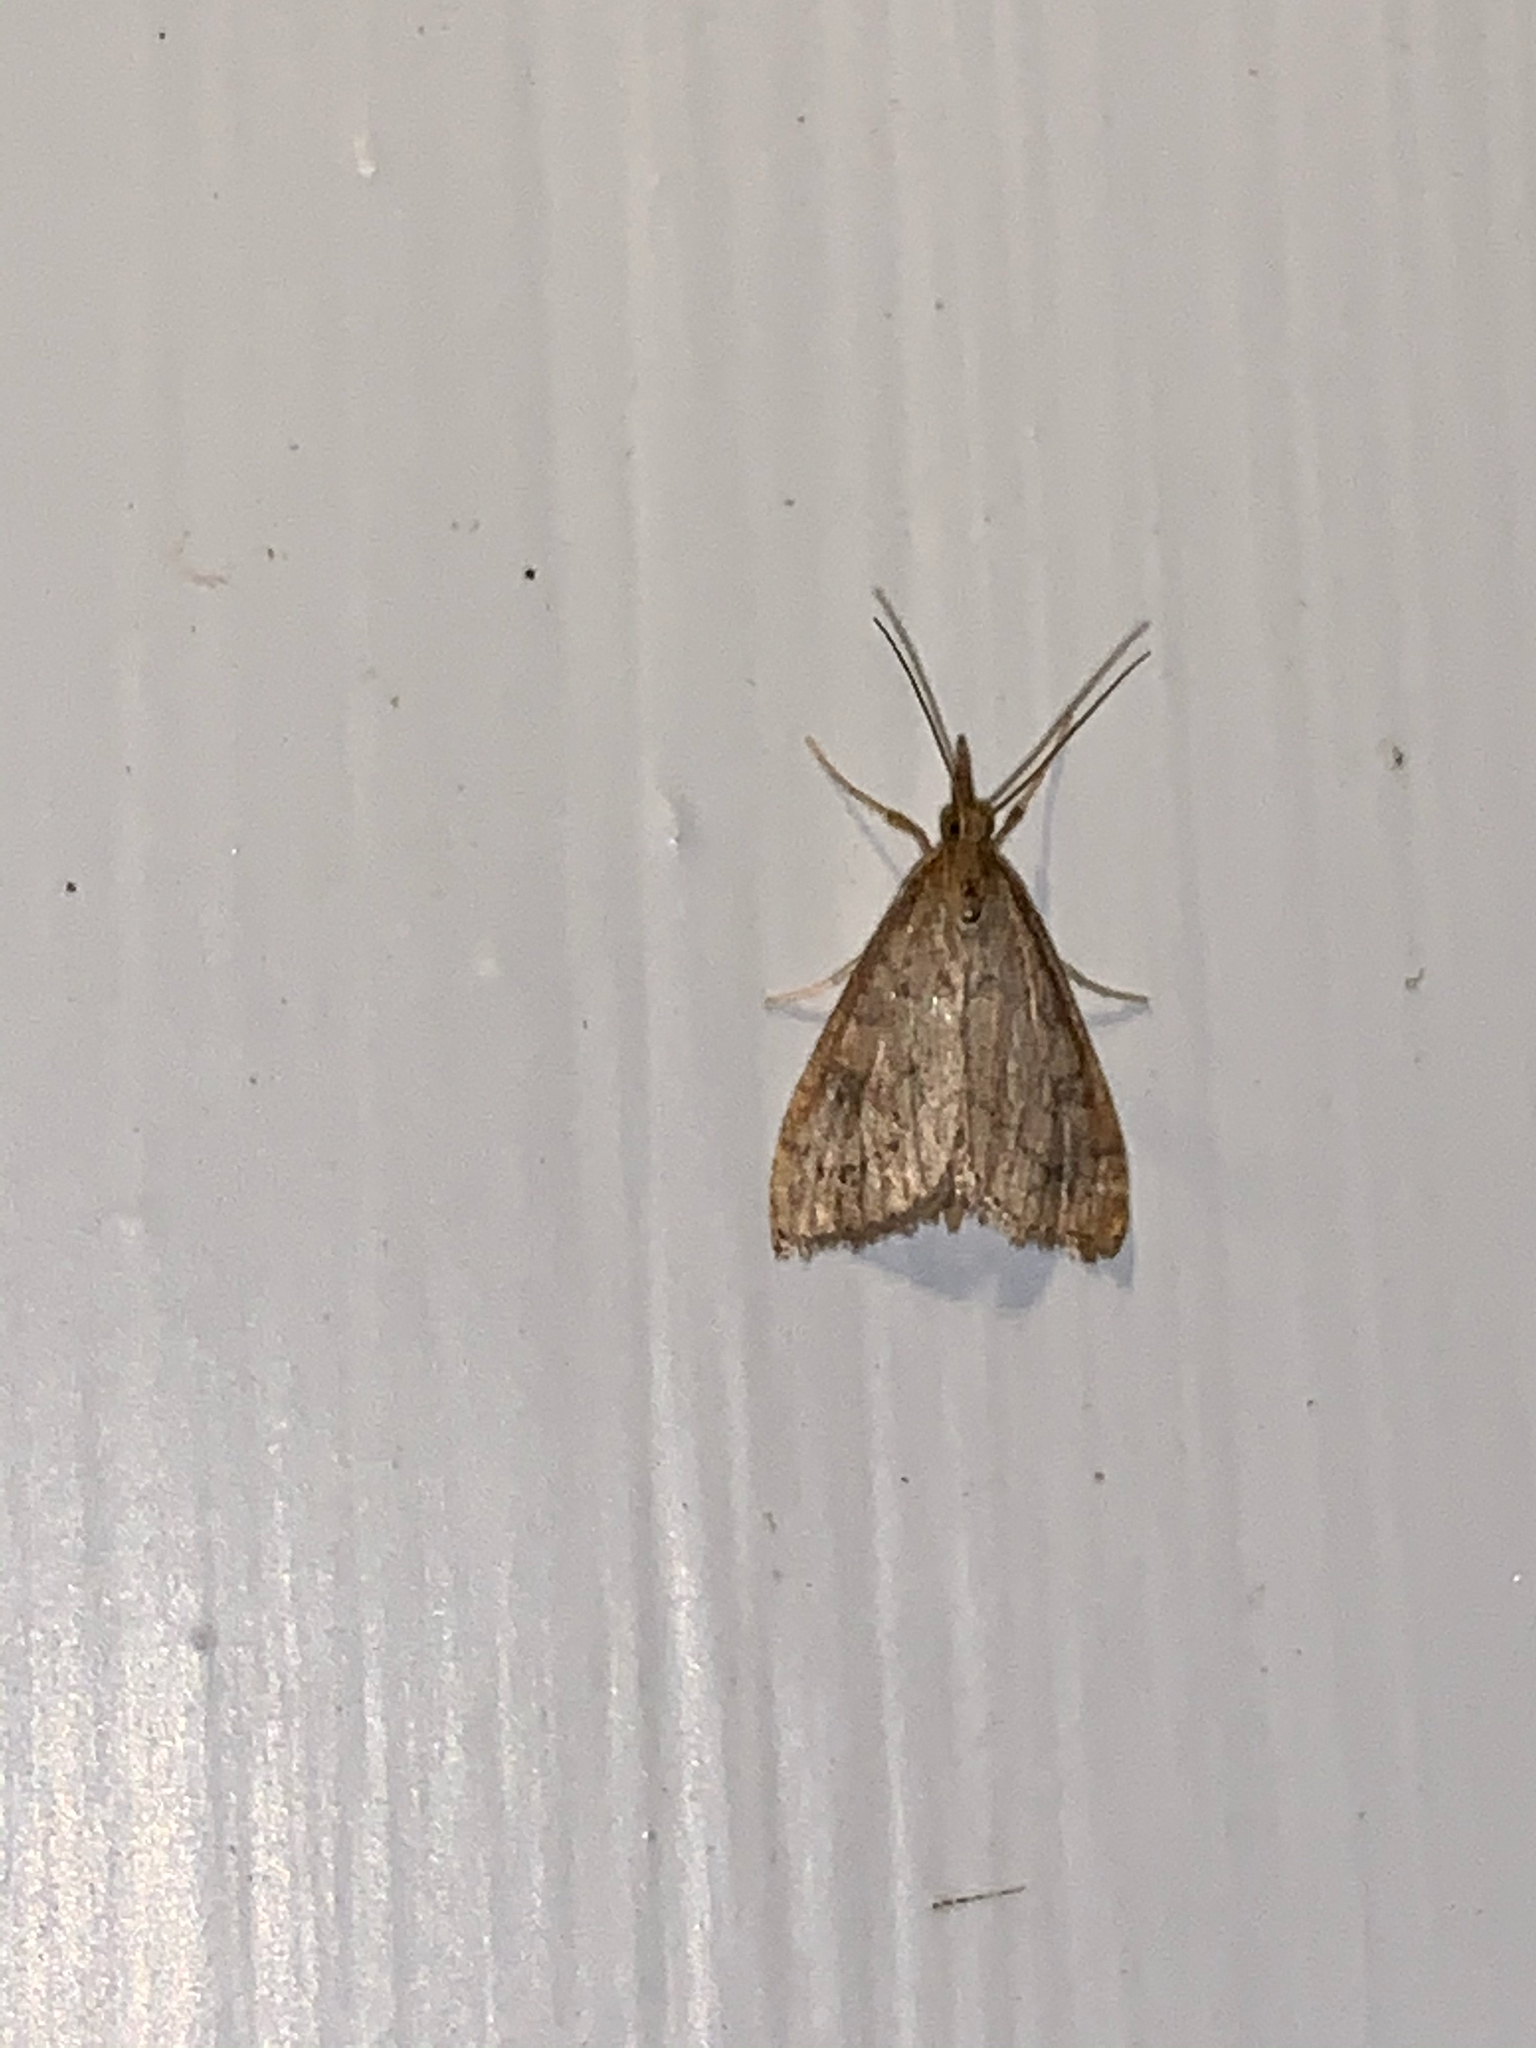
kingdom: Animalia
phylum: Arthropoda
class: Insecta
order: Lepidoptera
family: Crambidae
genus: Udea
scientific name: Udea rubigalis
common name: Celery leaftier moth
